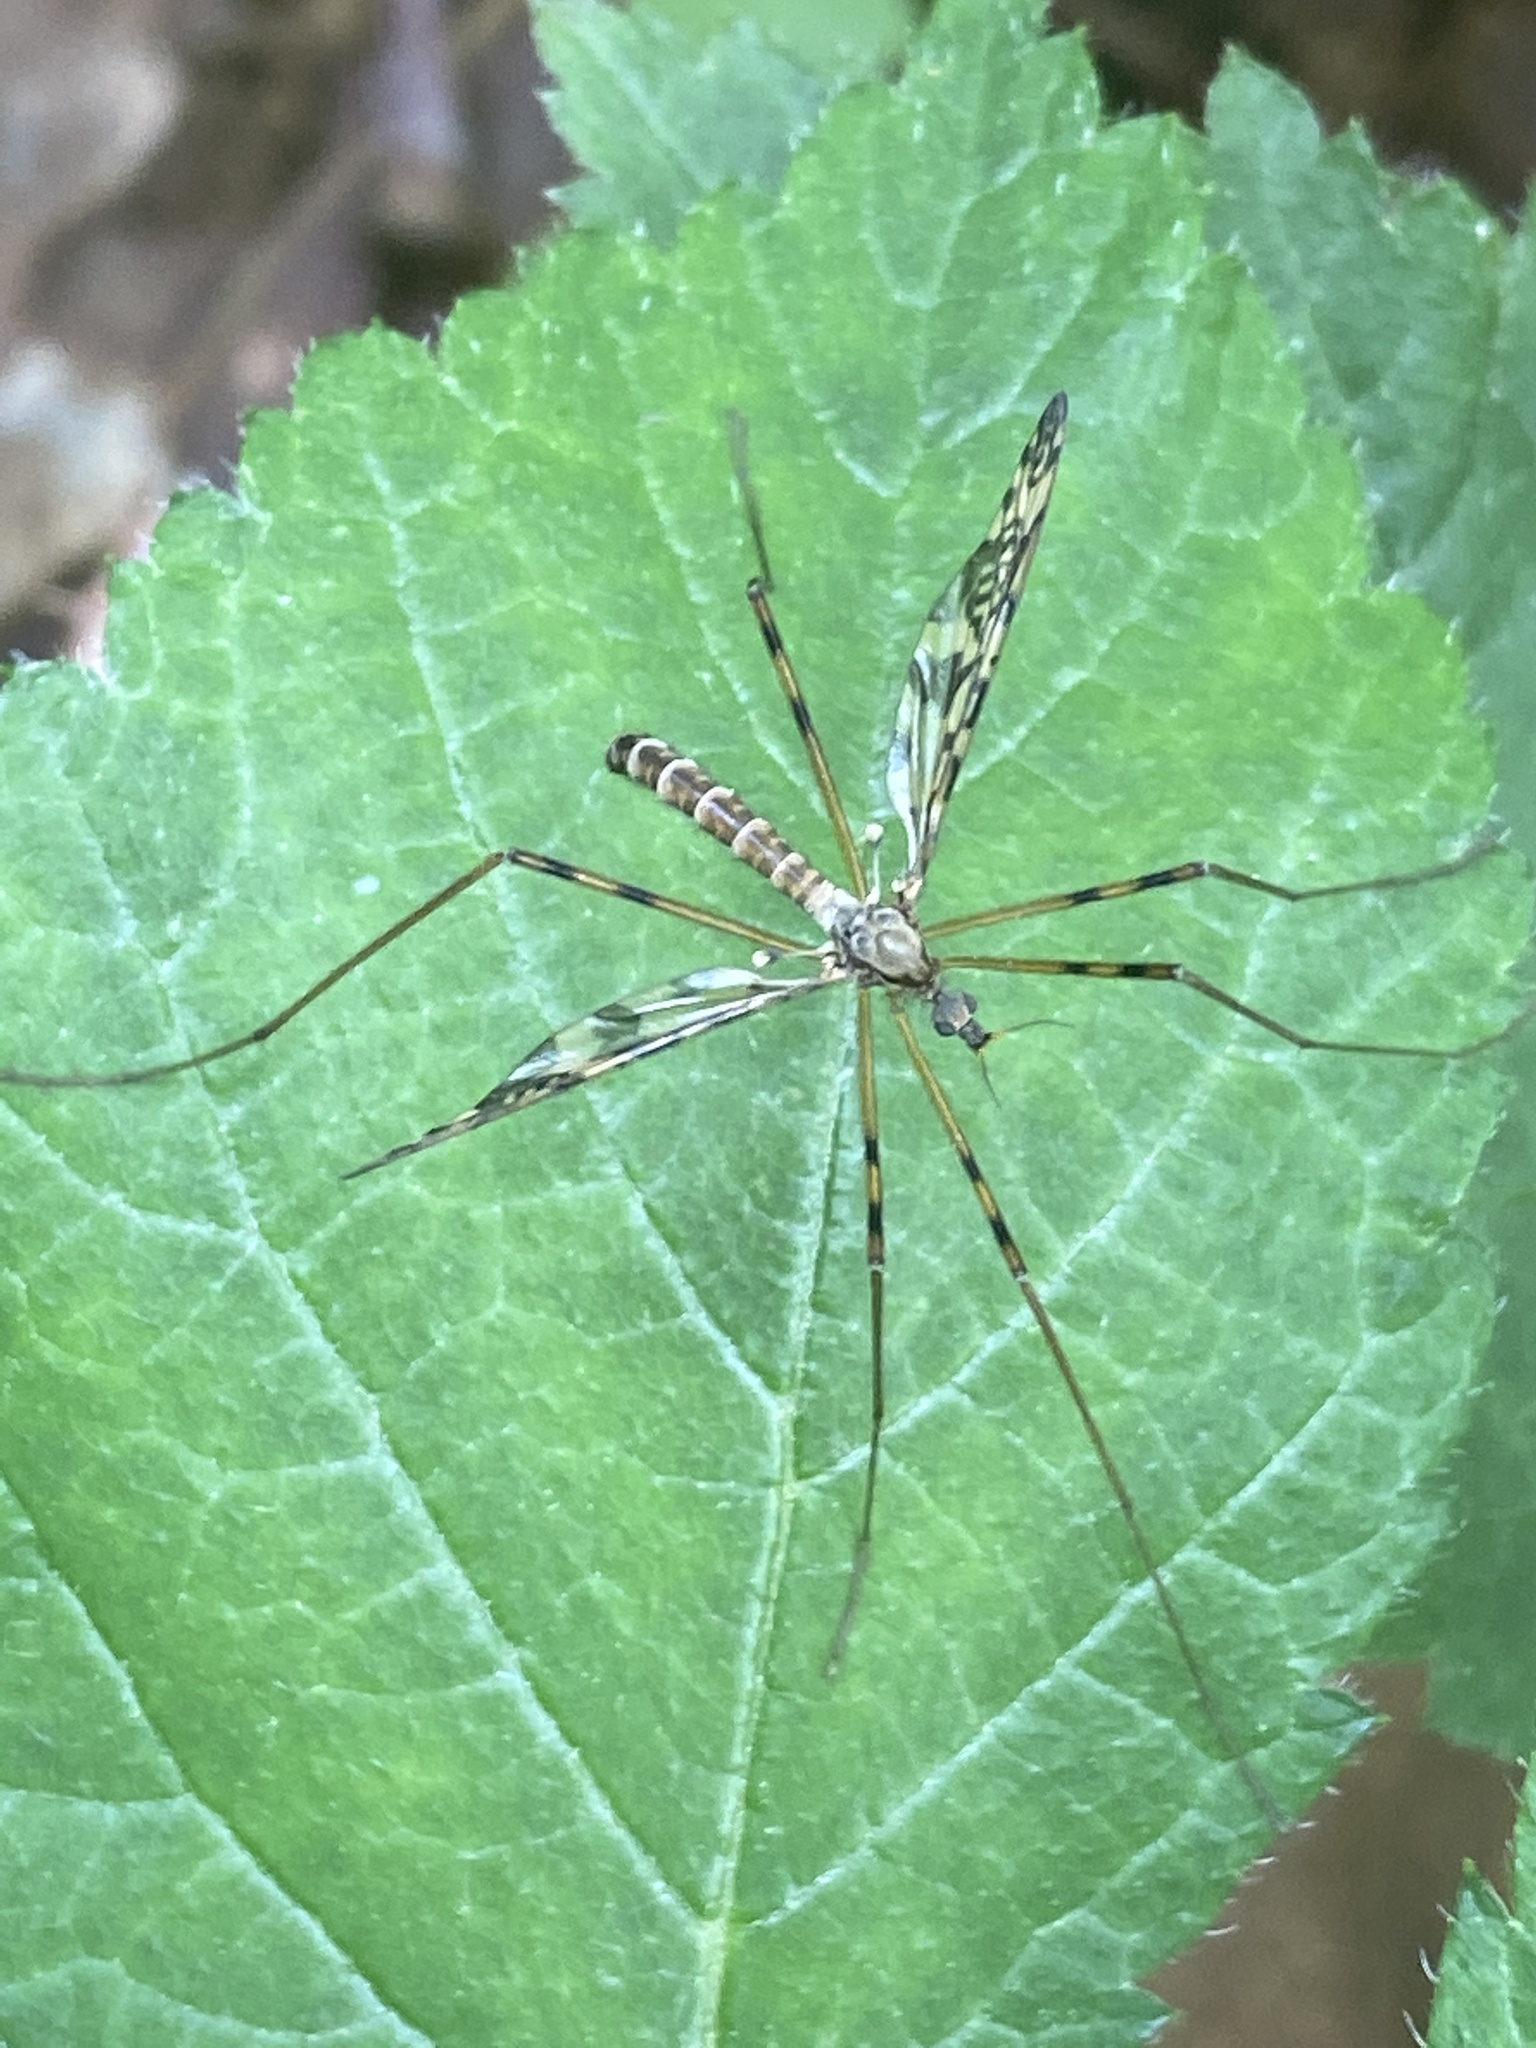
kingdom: Animalia
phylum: Arthropoda
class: Insecta
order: Diptera
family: Limoniidae
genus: Epiphragma
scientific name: Epiphragma ocellare
